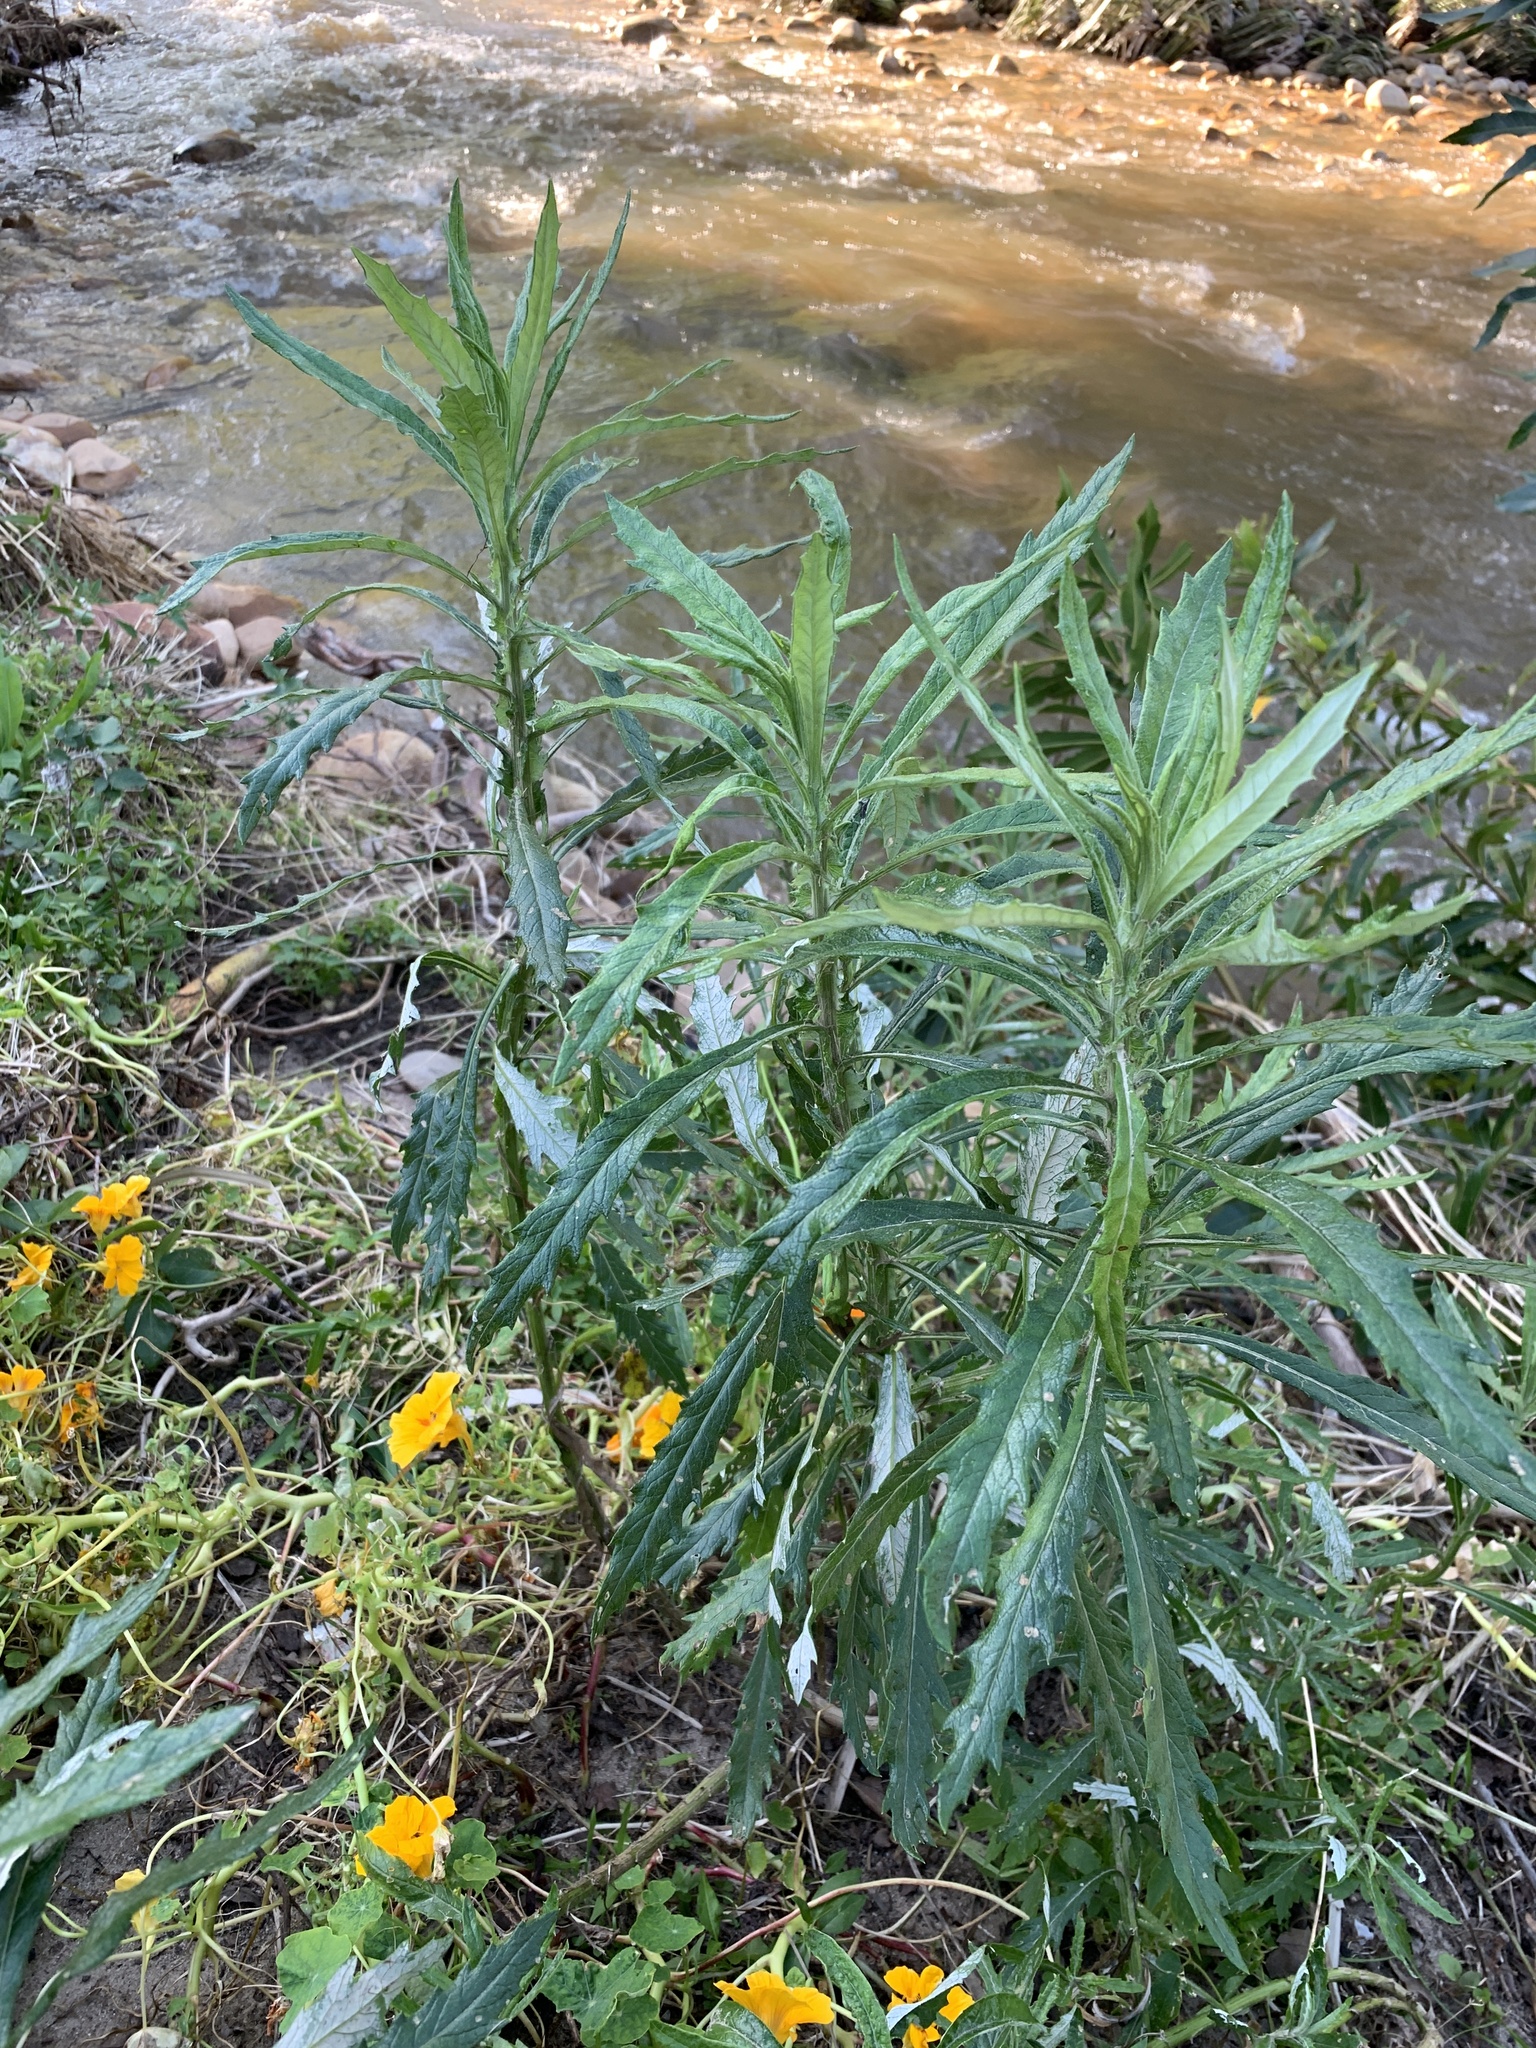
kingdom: Plantae
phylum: Tracheophyta
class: Magnoliopsida
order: Asterales
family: Asteraceae
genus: Senecio
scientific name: Senecio pterophorus
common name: Shoddy ragwort
